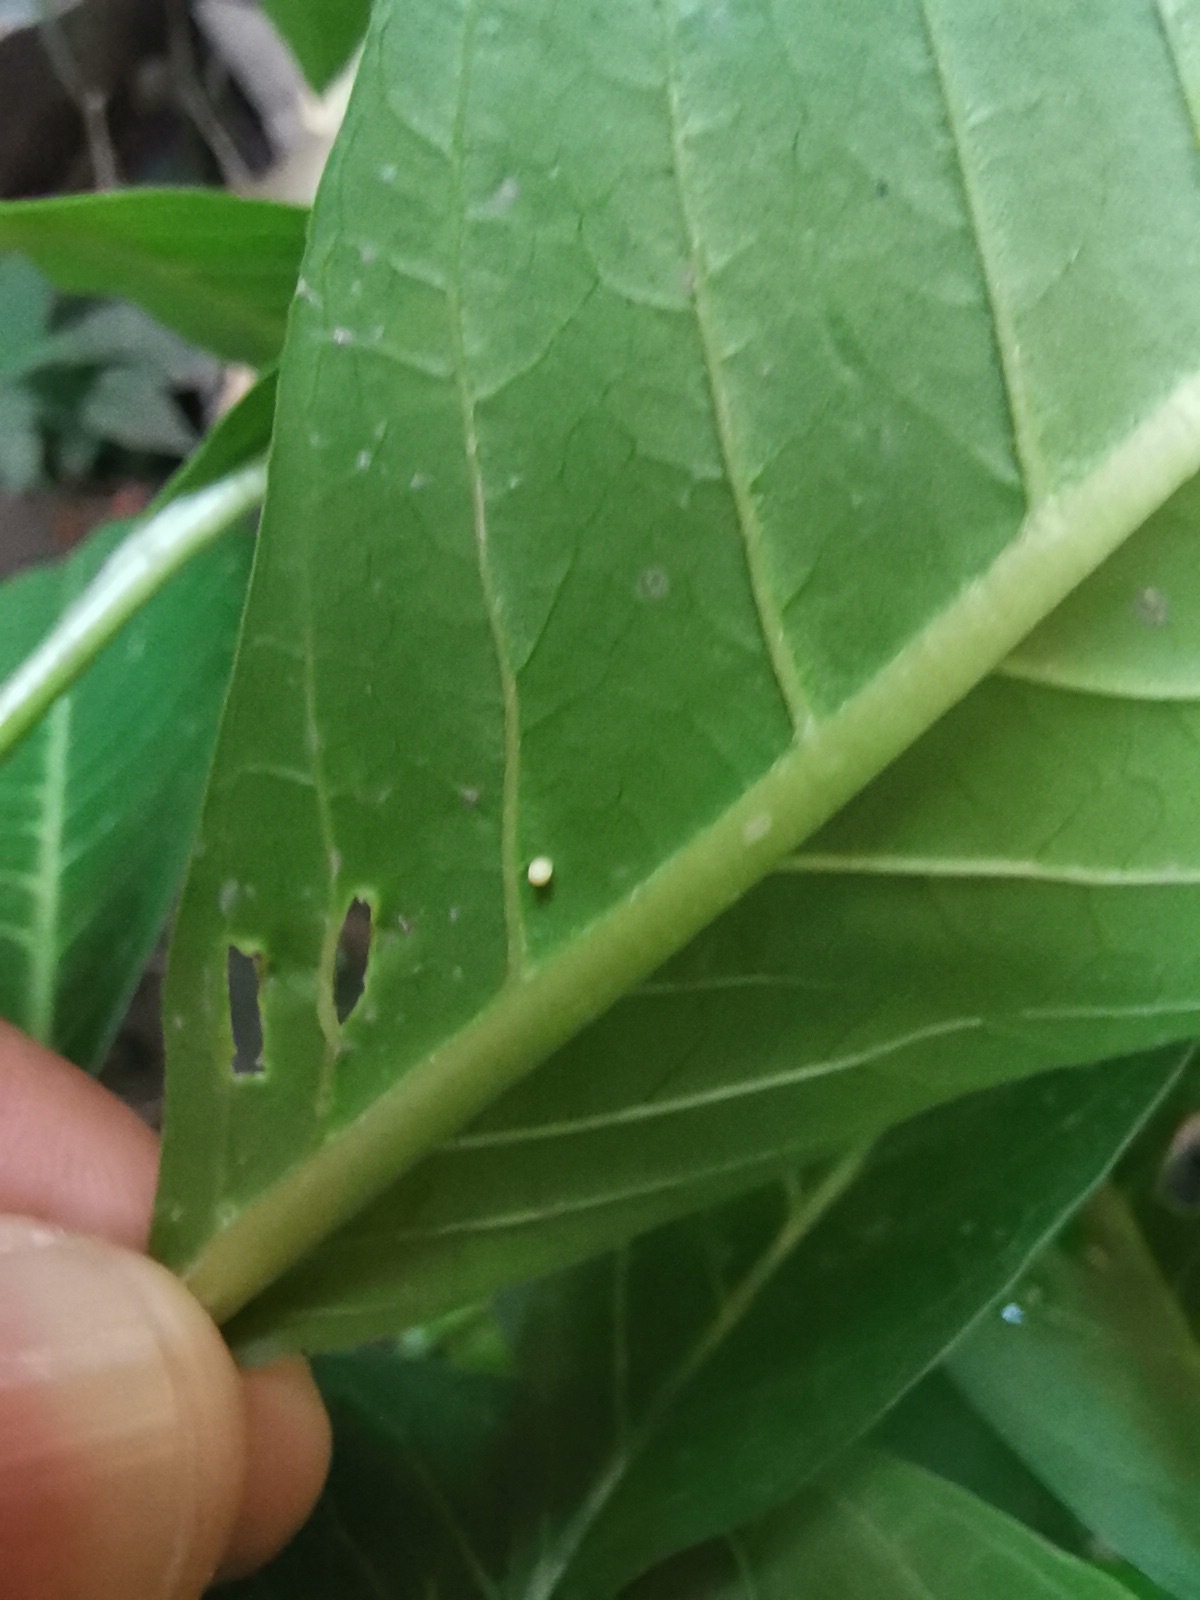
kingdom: Animalia
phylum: Arthropoda
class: Insecta
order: Lepidoptera
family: Nymphalidae
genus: Danaus
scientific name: Danaus plexippus
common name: Monarch
